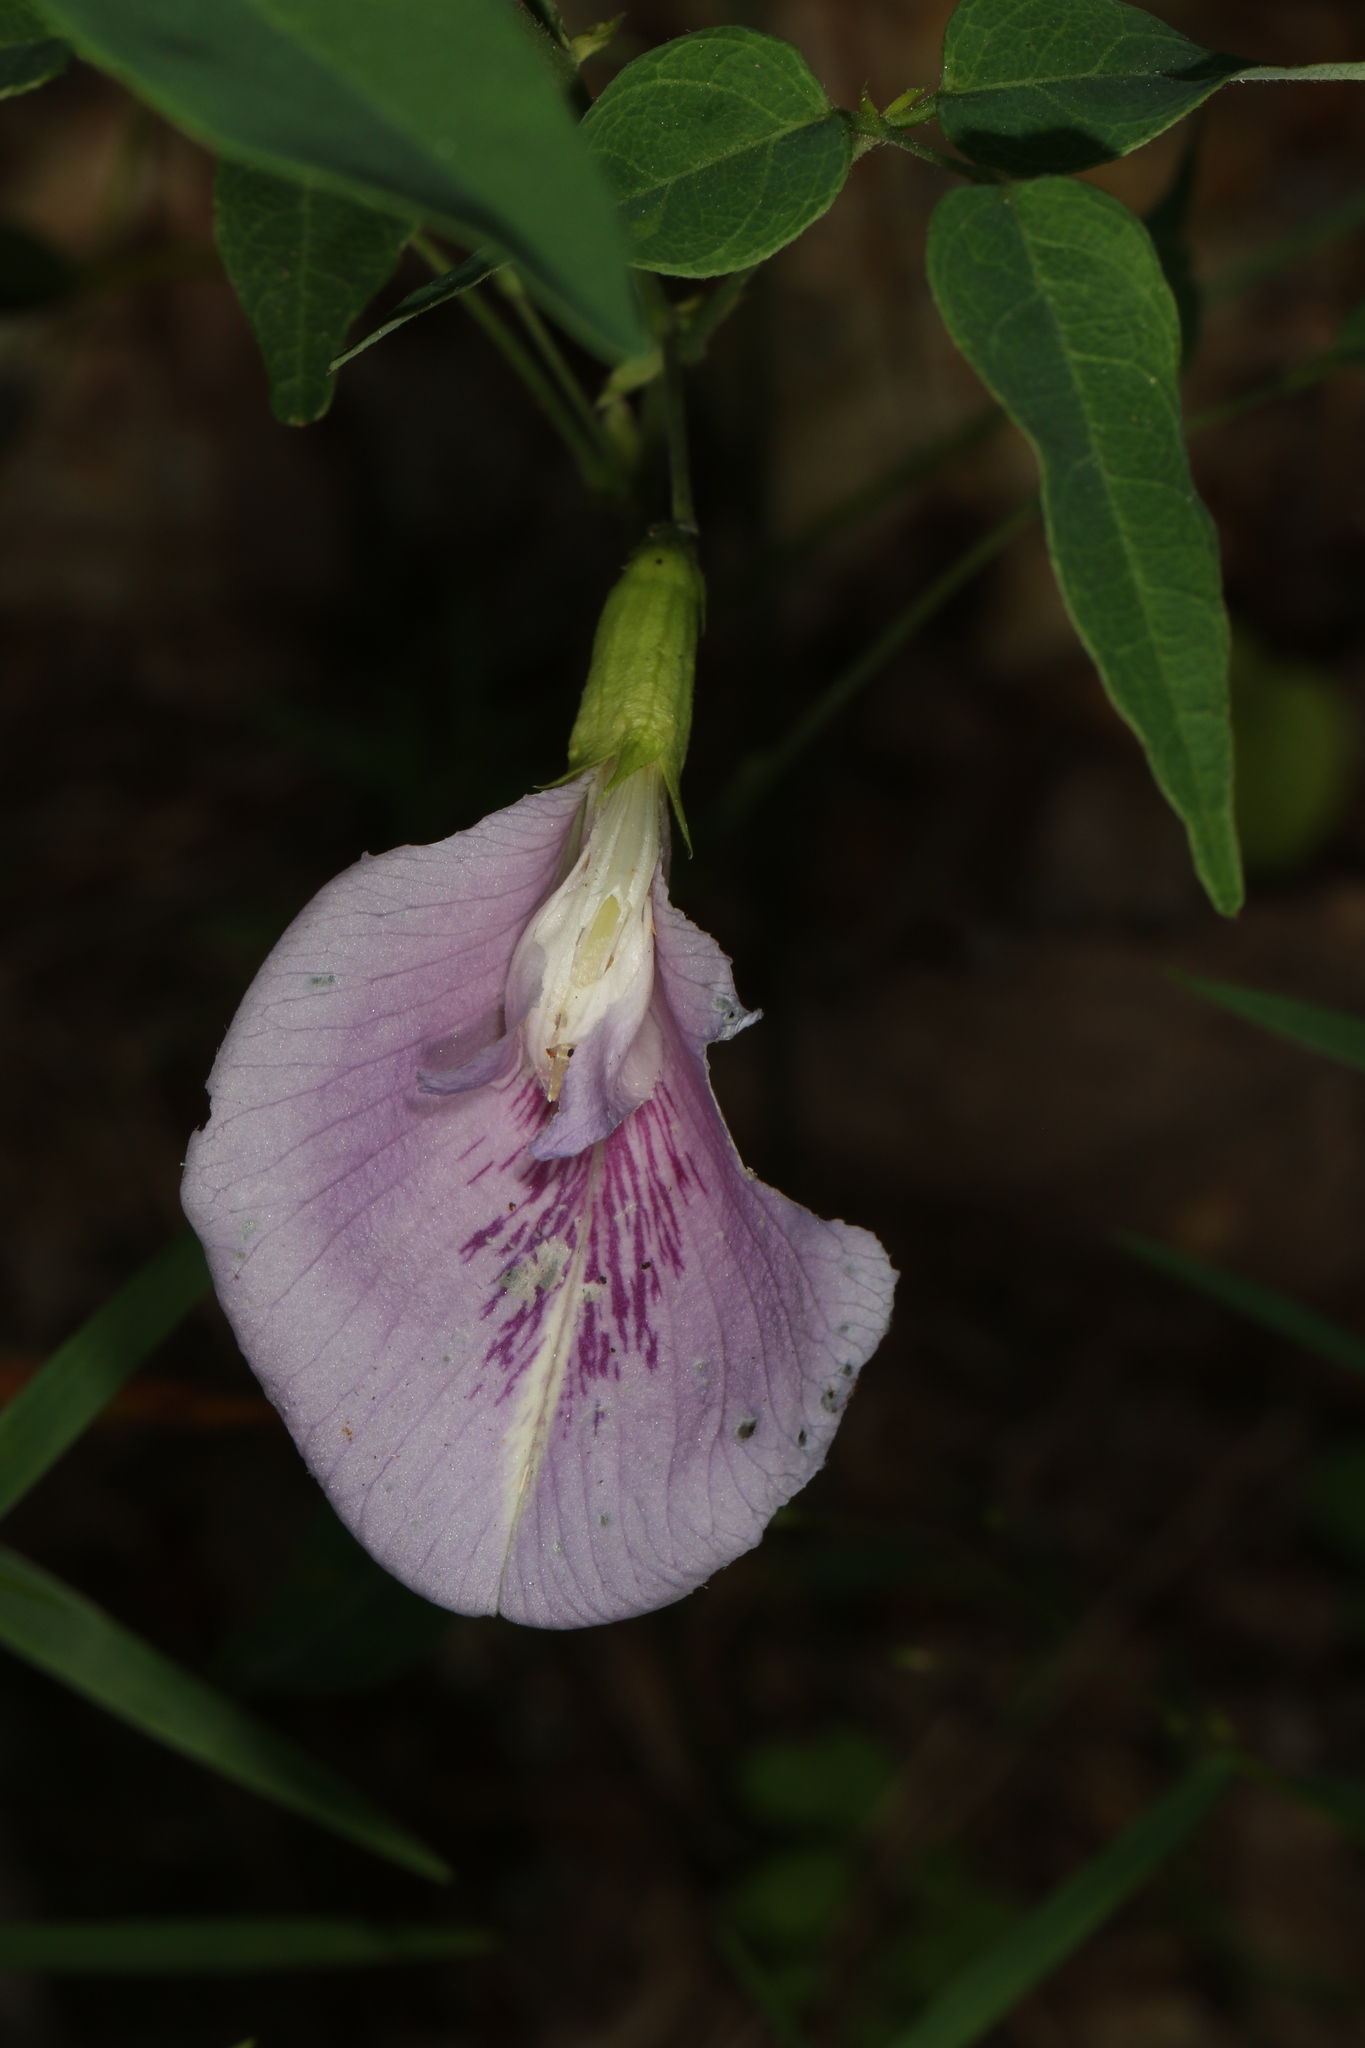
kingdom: Plantae
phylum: Tracheophyta
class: Magnoliopsida
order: Fabales
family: Fabaceae
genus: Clitoria
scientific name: Clitoria mariana
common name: Butterfly-pea
